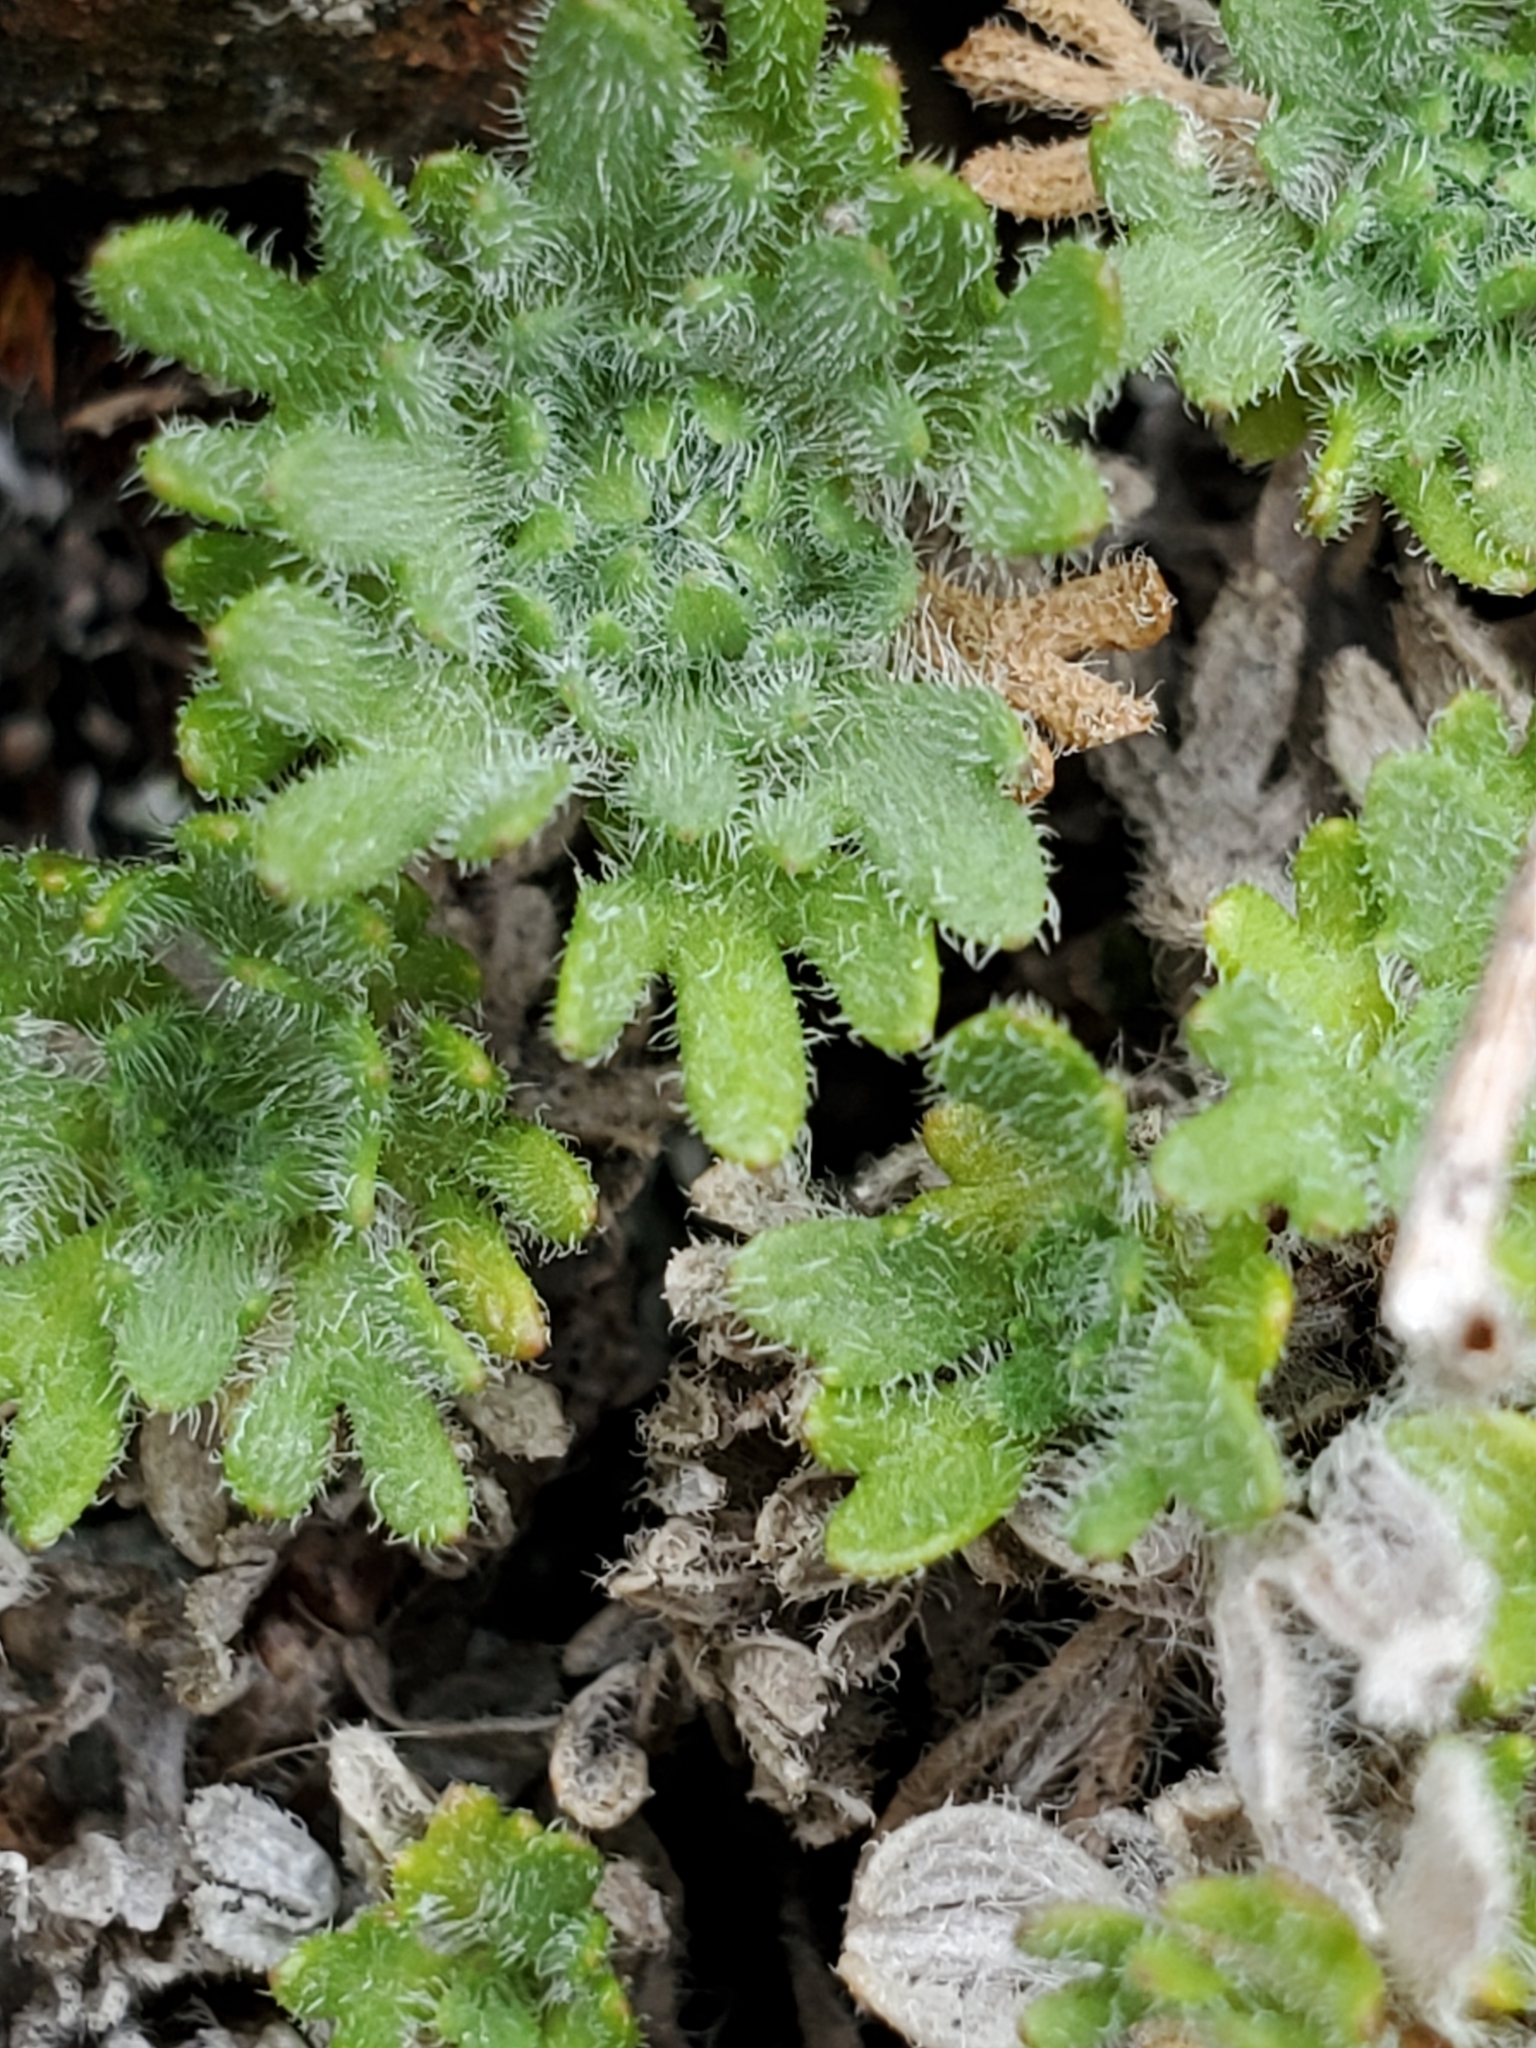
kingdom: Plantae
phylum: Tracheophyta
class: Magnoliopsida
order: Asterales
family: Asteraceae
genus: Erigeron
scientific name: Erigeron salishii
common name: Salish daisy
